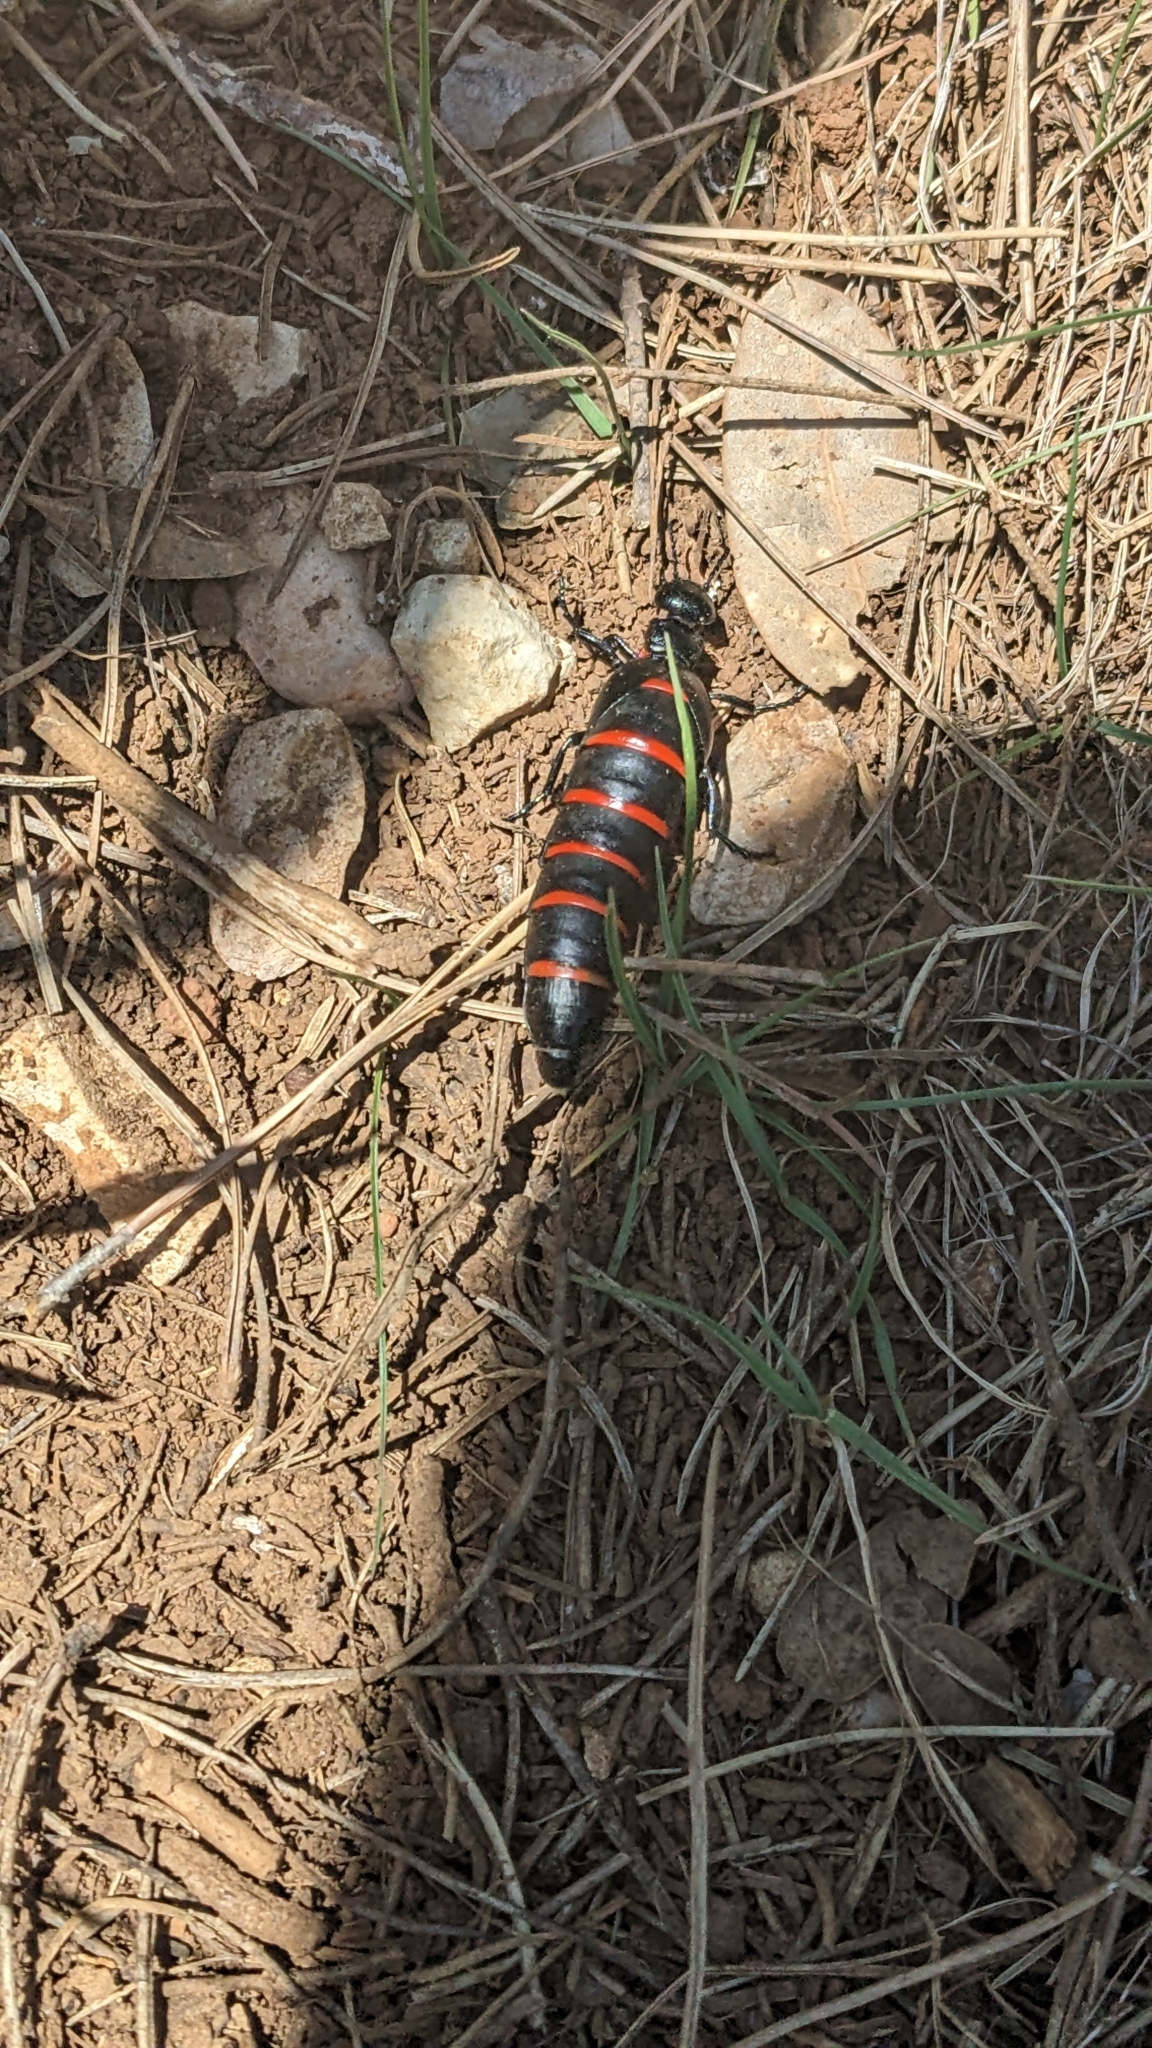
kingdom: Animalia
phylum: Arthropoda
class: Insecta
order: Coleoptera
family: Meloidae
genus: Berberomeloe
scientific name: Berberomeloe majalis
